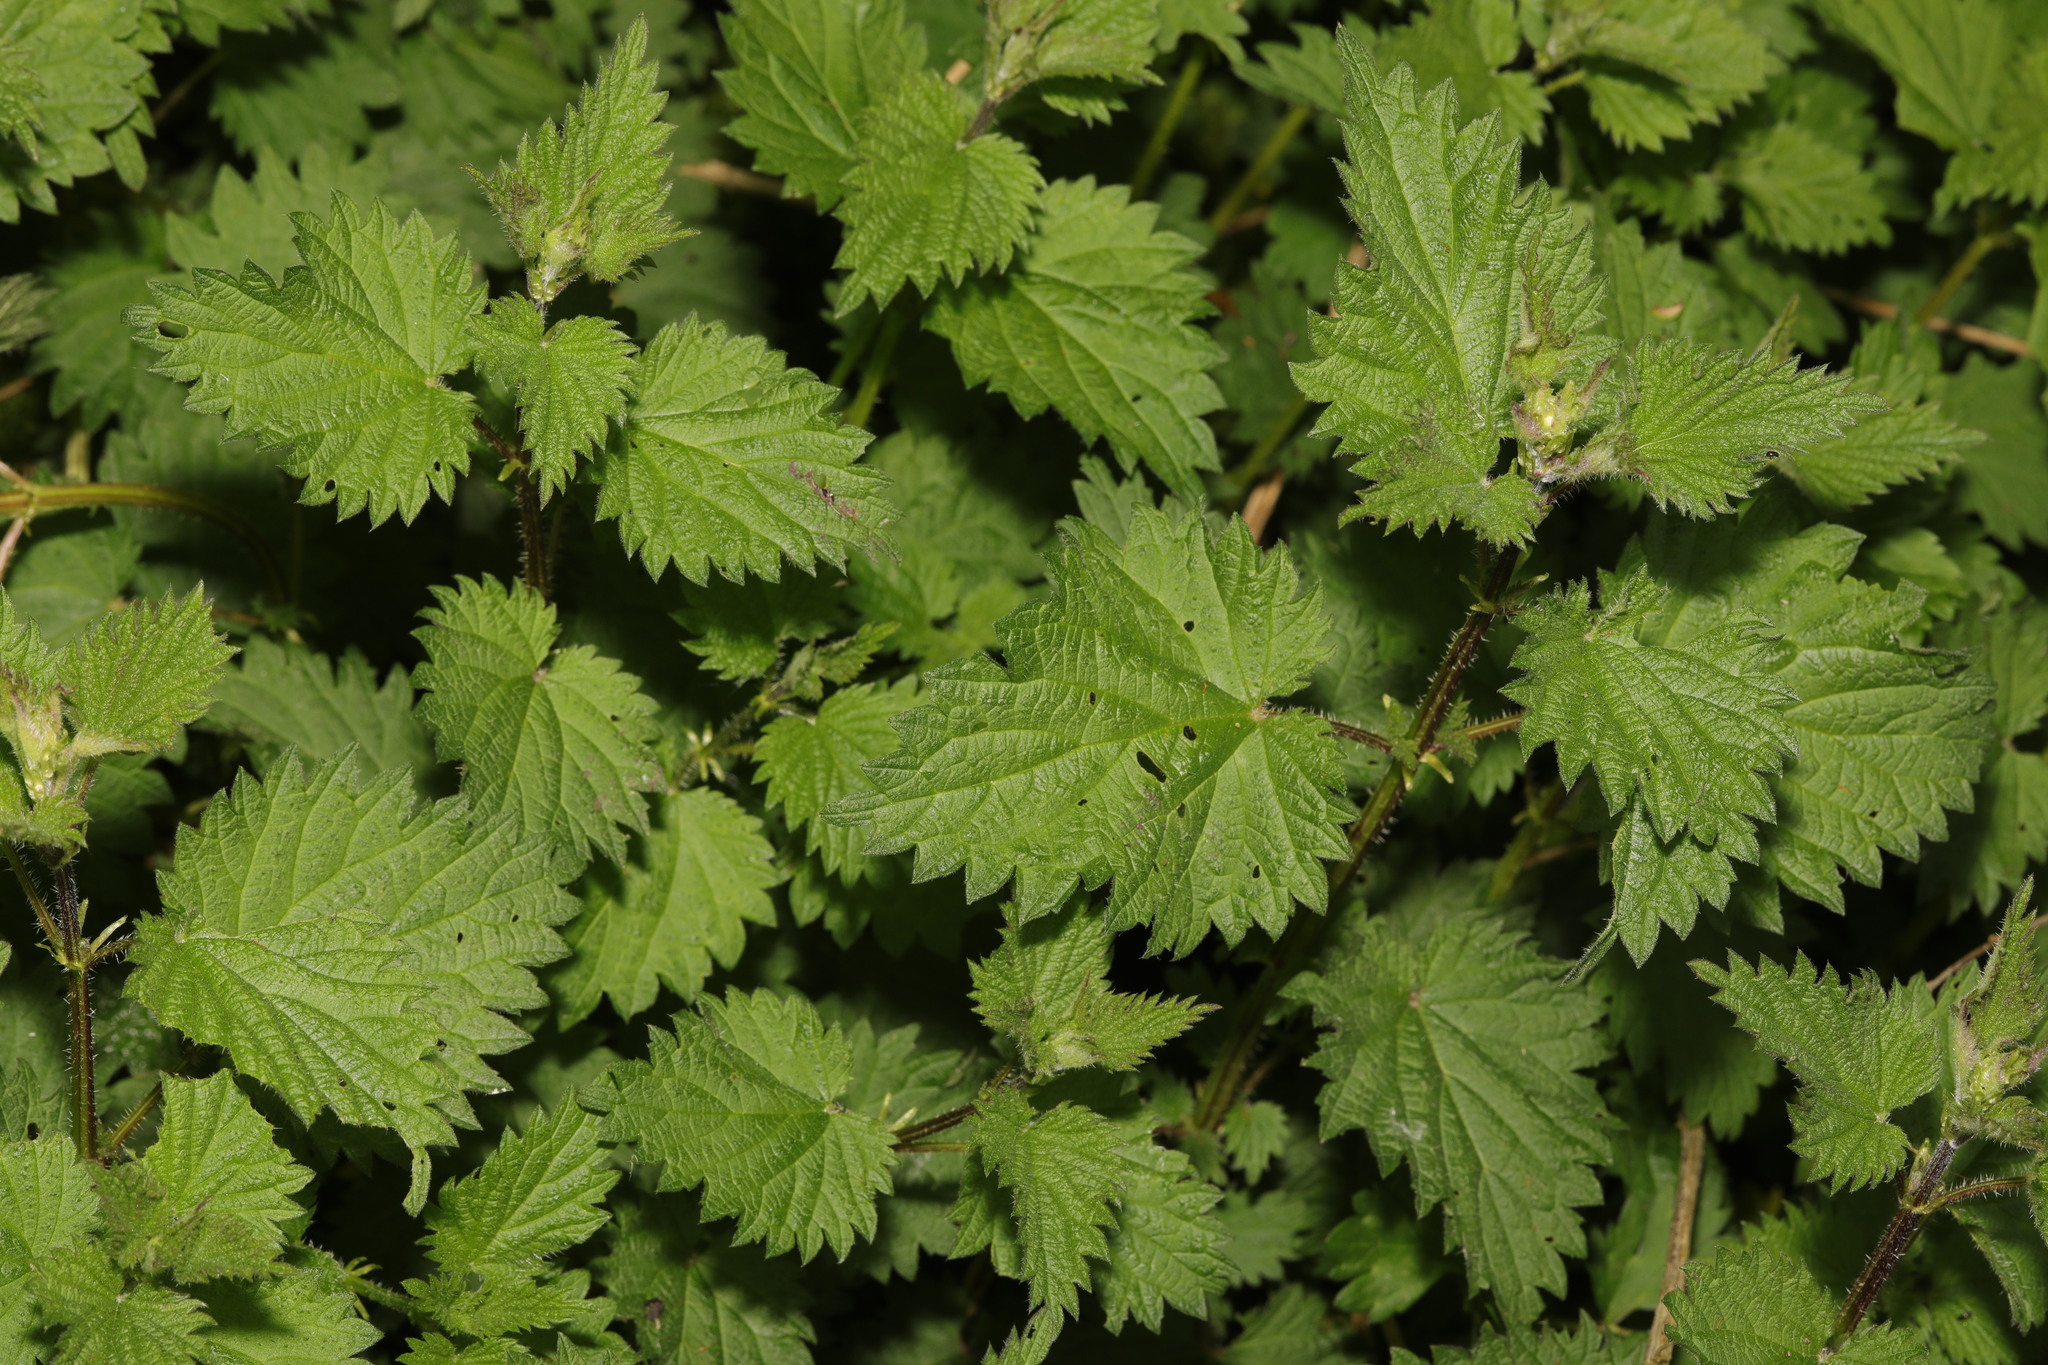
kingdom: Plantae
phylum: Tracheophyta
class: Magnoliopsida
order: Rosales
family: Urticaceae
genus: Urtica
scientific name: Urtica dioica
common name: Common nettle
